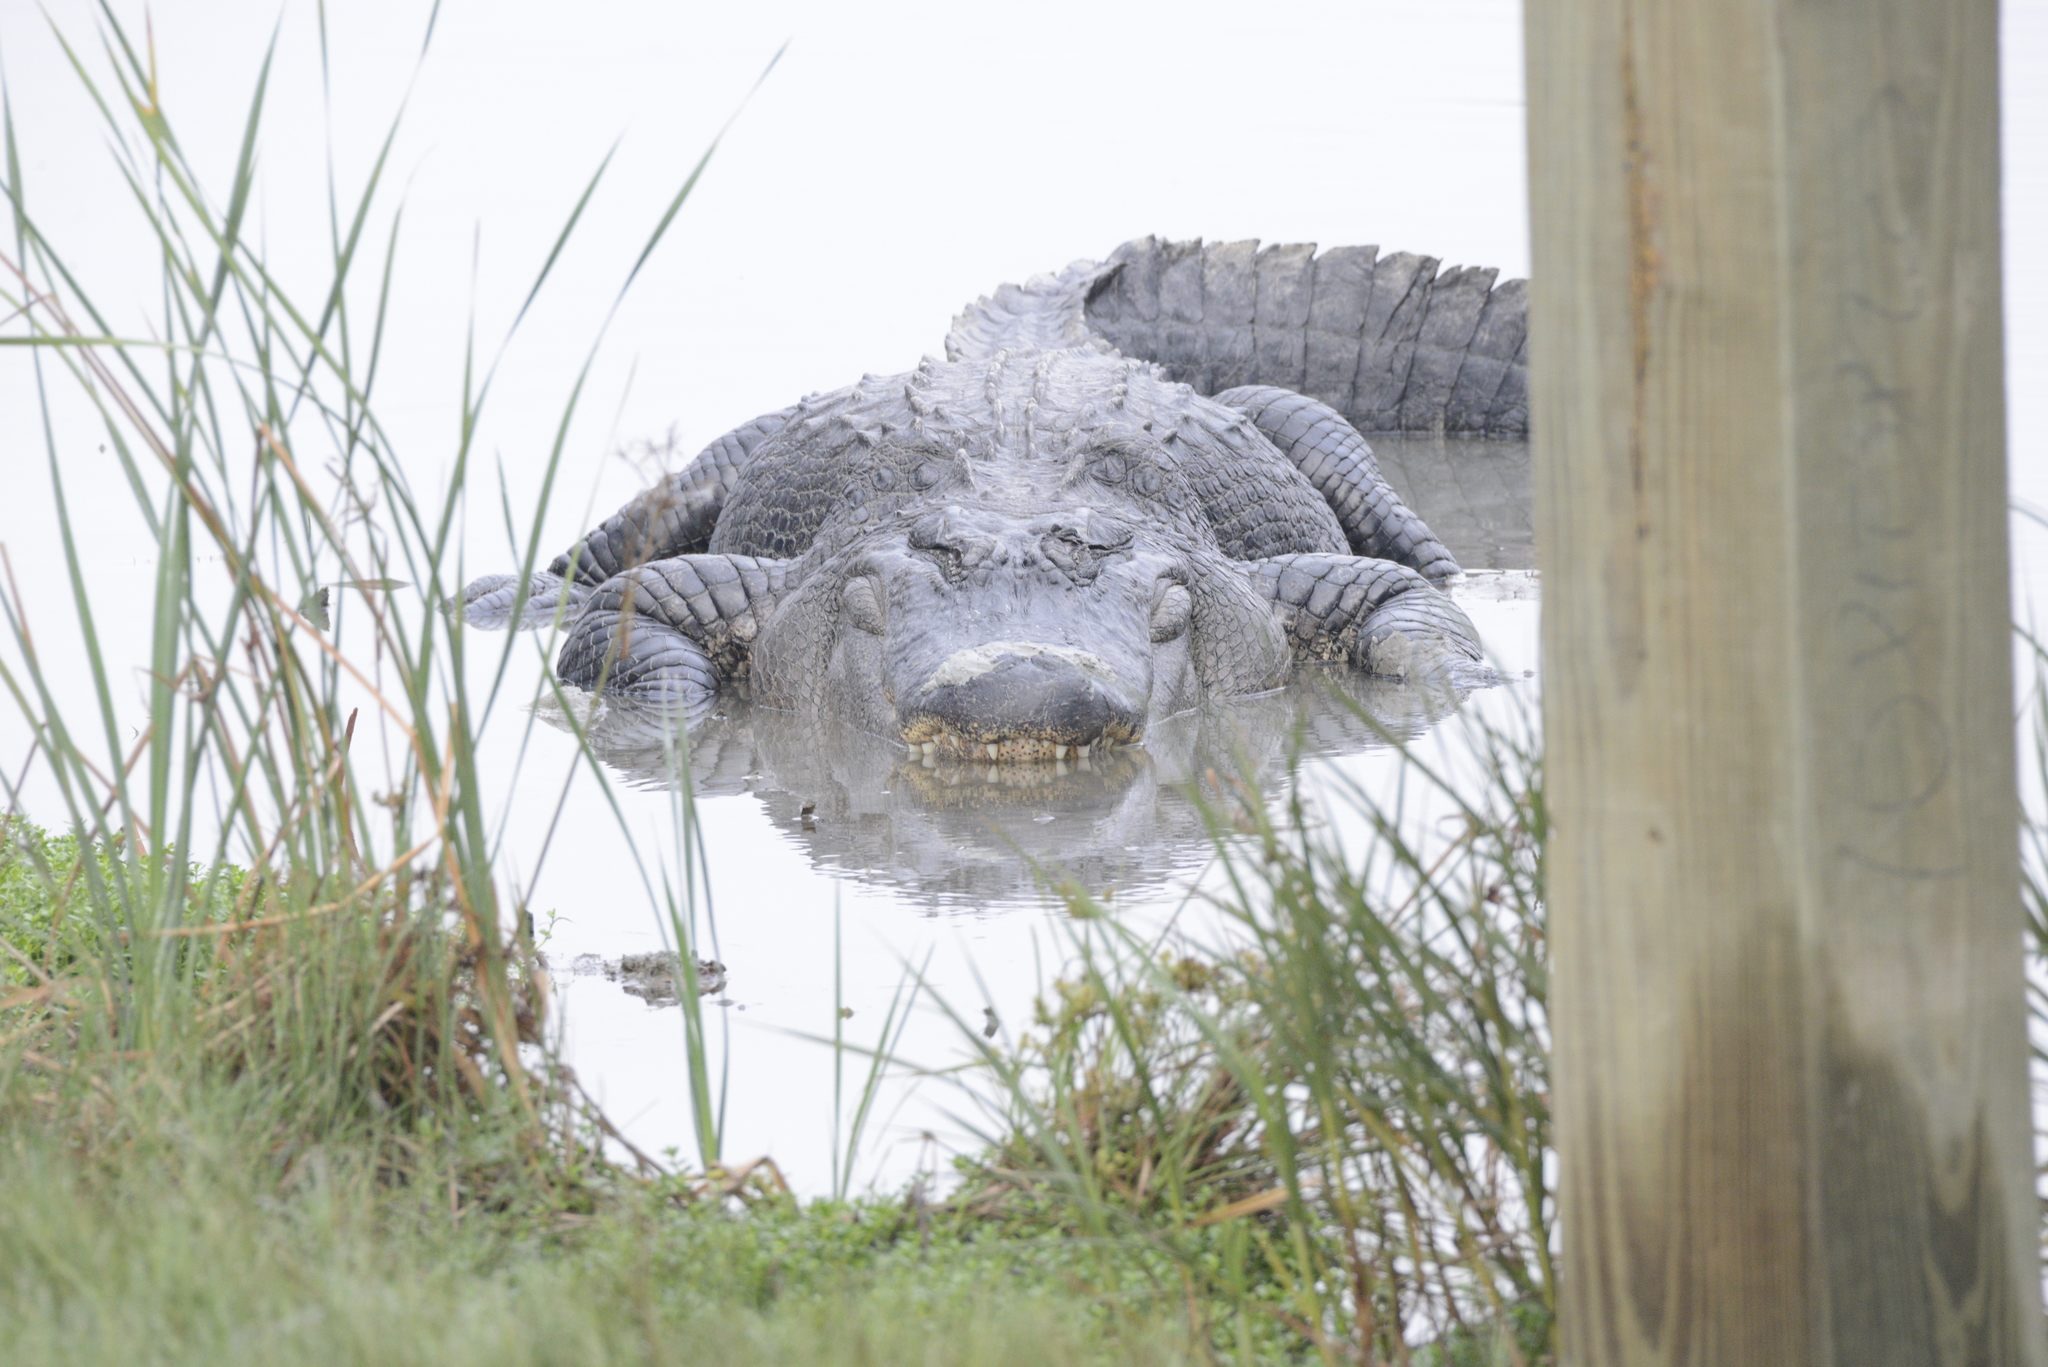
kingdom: Animalia
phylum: Chordata
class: Crocodylia
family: Alligatoridae
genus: Alligator
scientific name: Alligator mississippiensis
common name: American alligator
